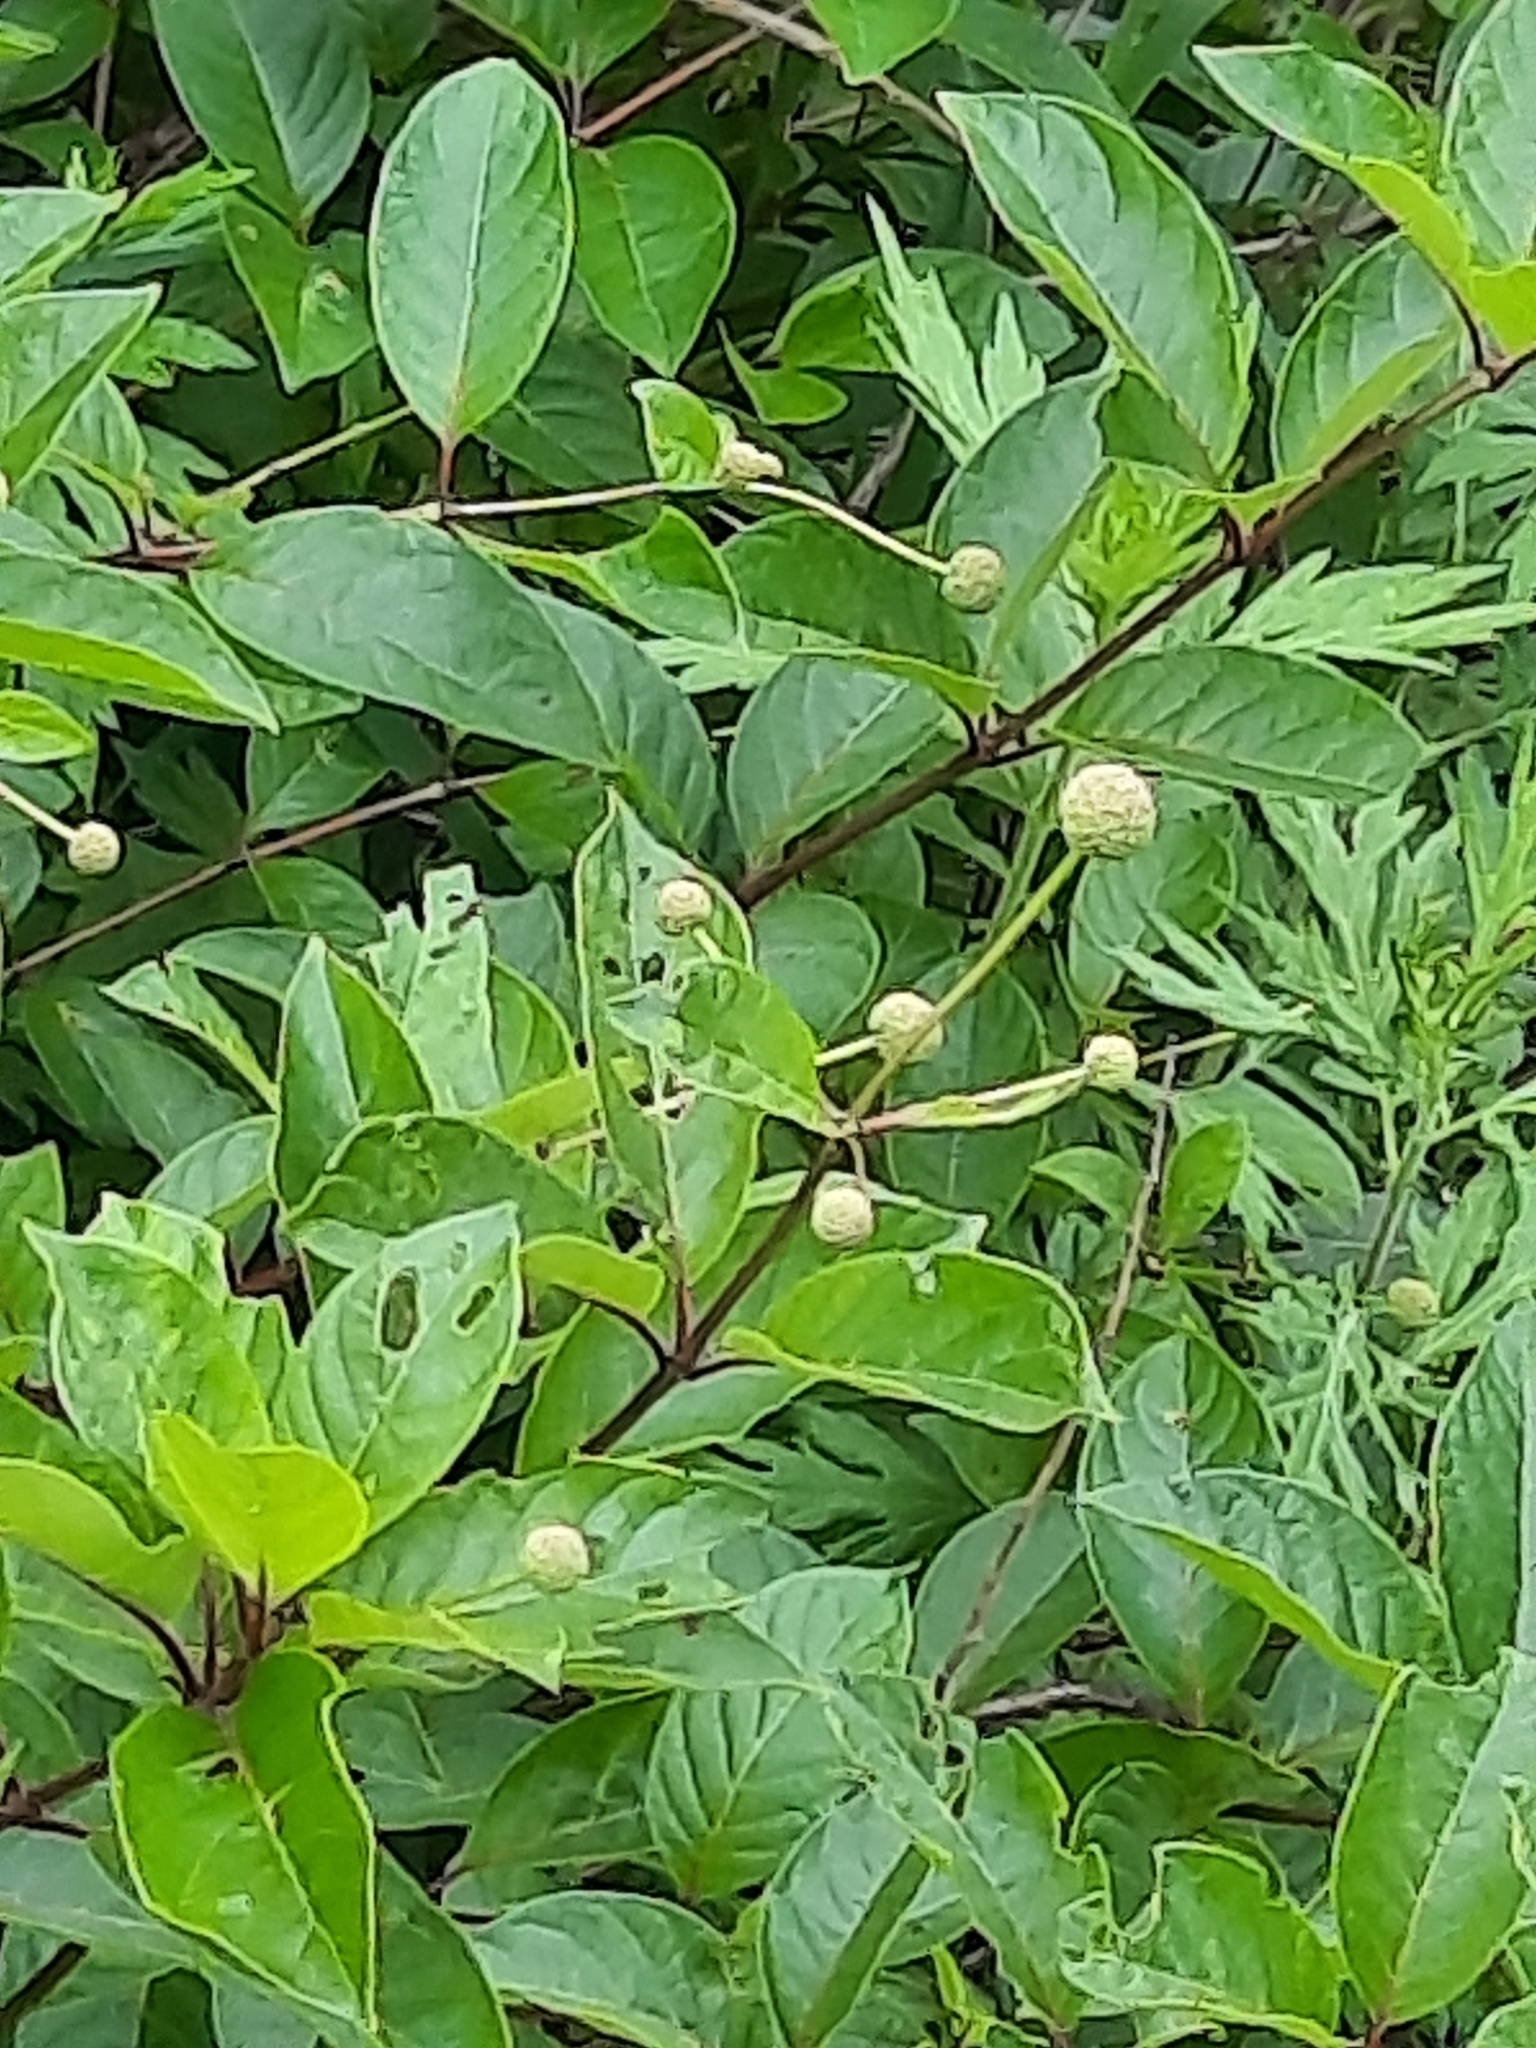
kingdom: Plantae
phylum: Tracheophyta
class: Magnoliopsida
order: Gentianales
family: Rubiaceae
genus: Cephalanthus
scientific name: Cephalanthus occidentalis
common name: Button-willow
